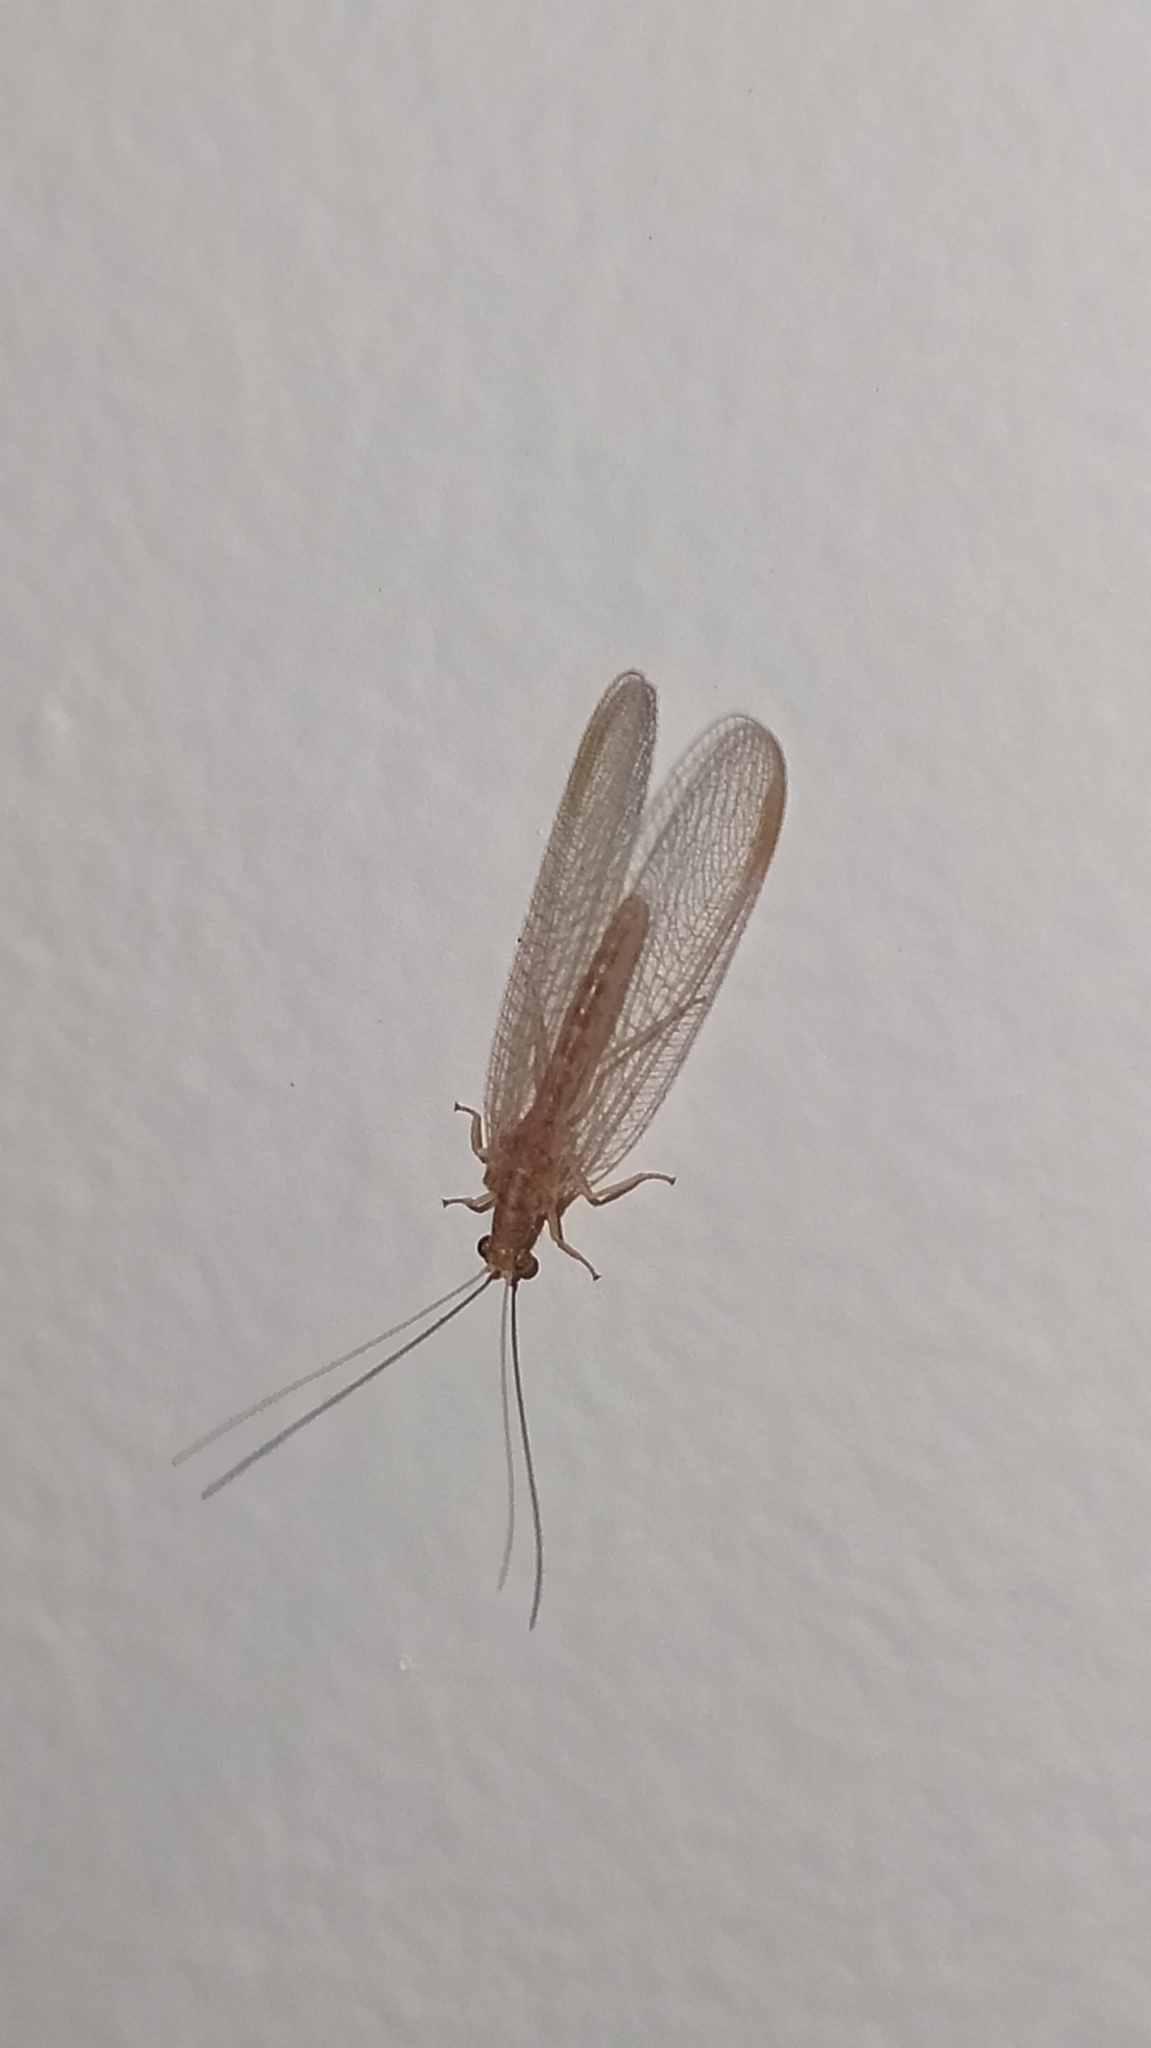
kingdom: Animalia
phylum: Arthropoda
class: Insecta
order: Neuroptera
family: Chrysopidae
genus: Chrysoperla
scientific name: Chrysoperla
